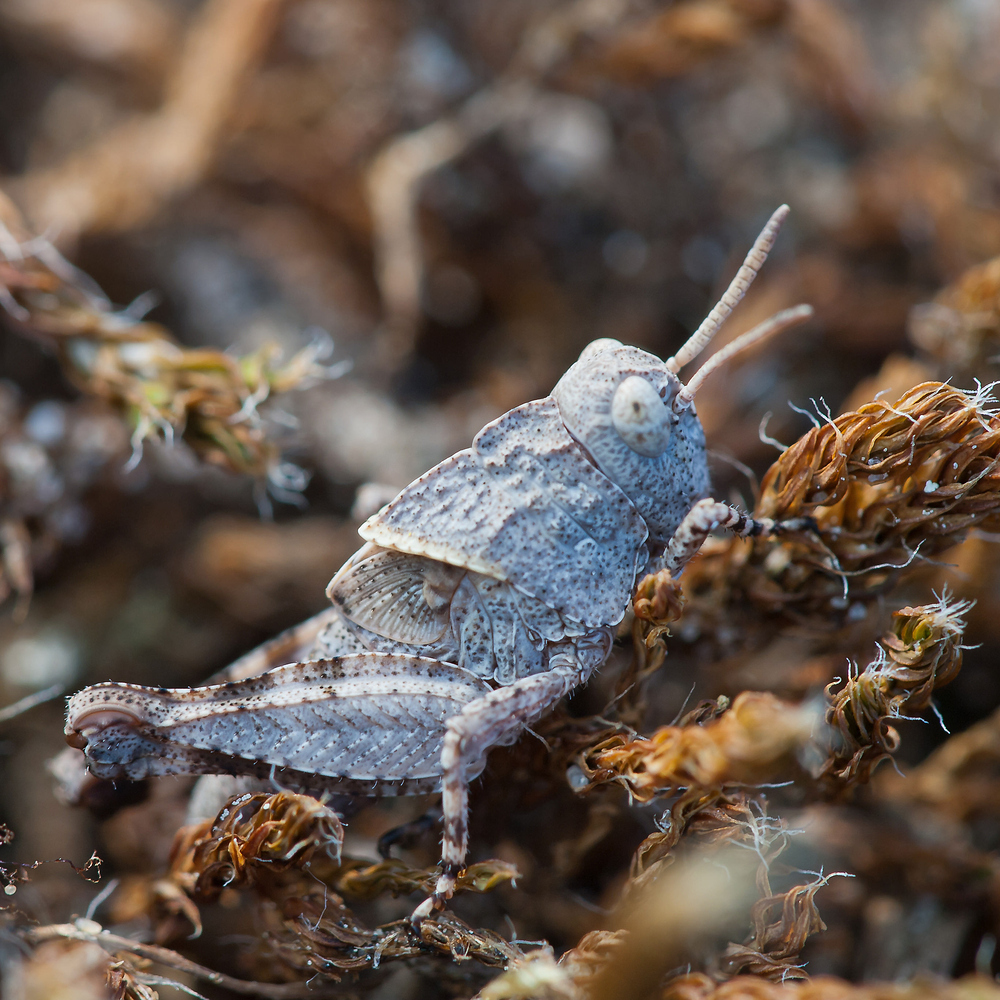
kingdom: Animalia
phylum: Arthropoda
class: Insecta
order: Orthoptera
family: Acrididae
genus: Oedipoda
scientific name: Oedipoda caerulescens
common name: Blue-winged grasshopper
